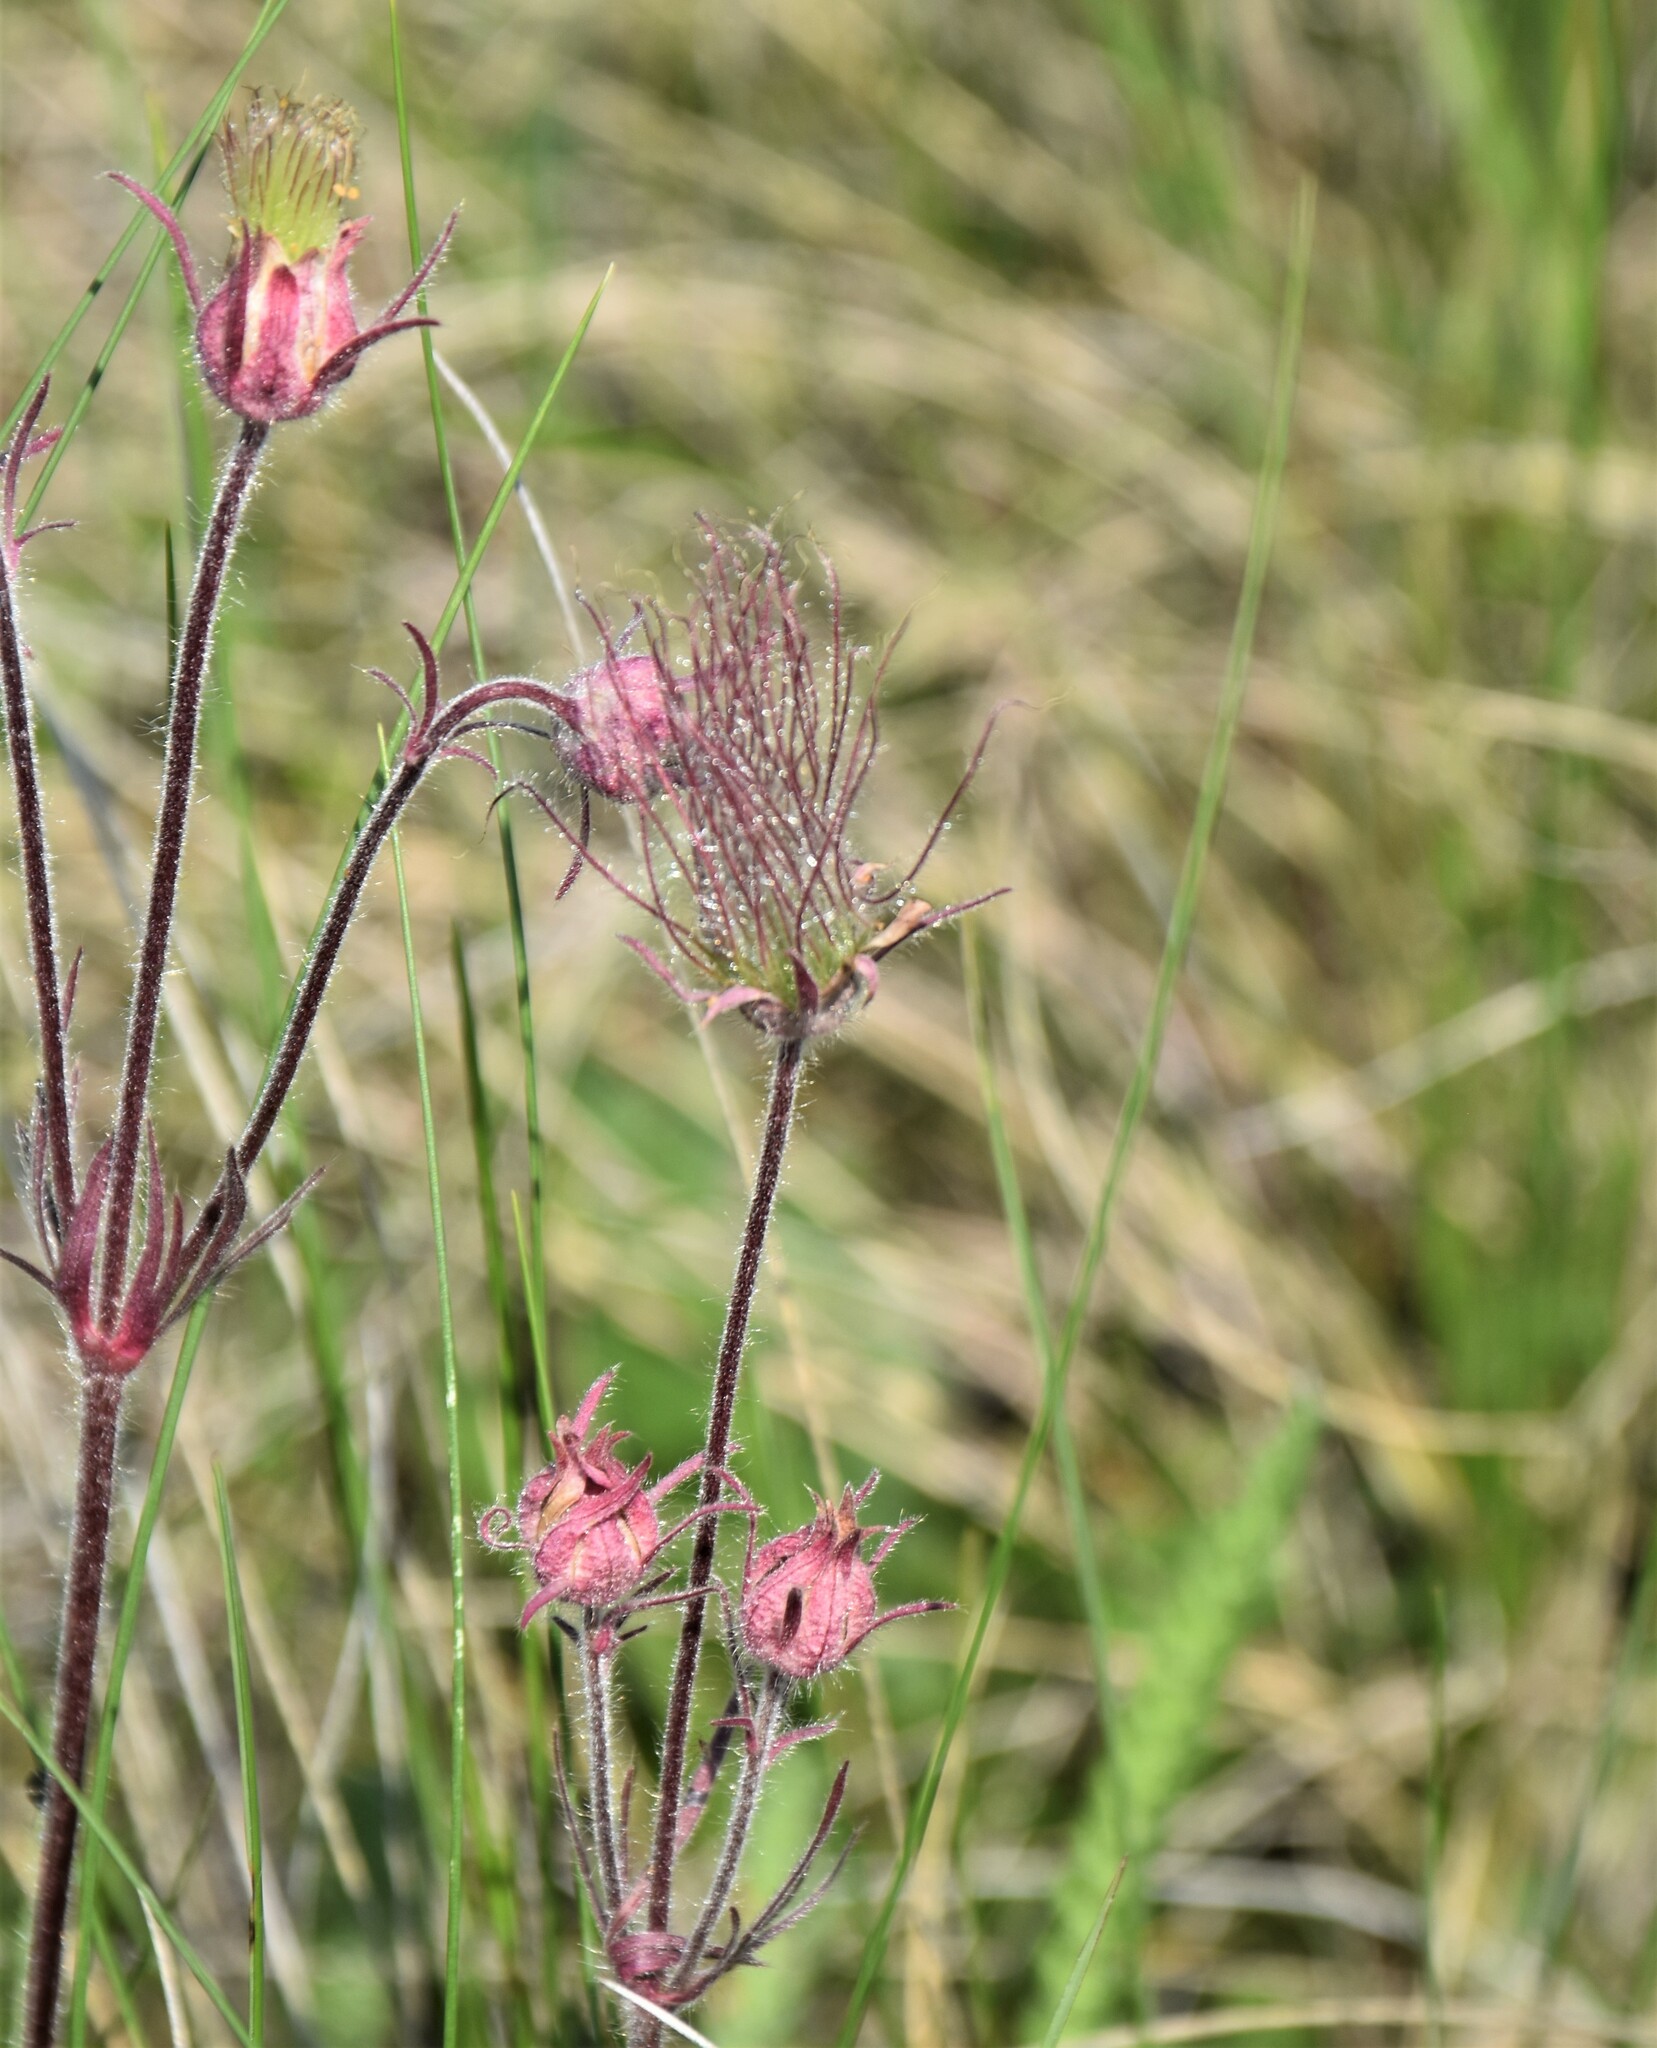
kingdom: Plantae
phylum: Tracheophyta
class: Magnoliopsida
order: Rosales
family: Rosaceae
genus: Geum
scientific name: Geum triflorum
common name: Old man's whiskers
